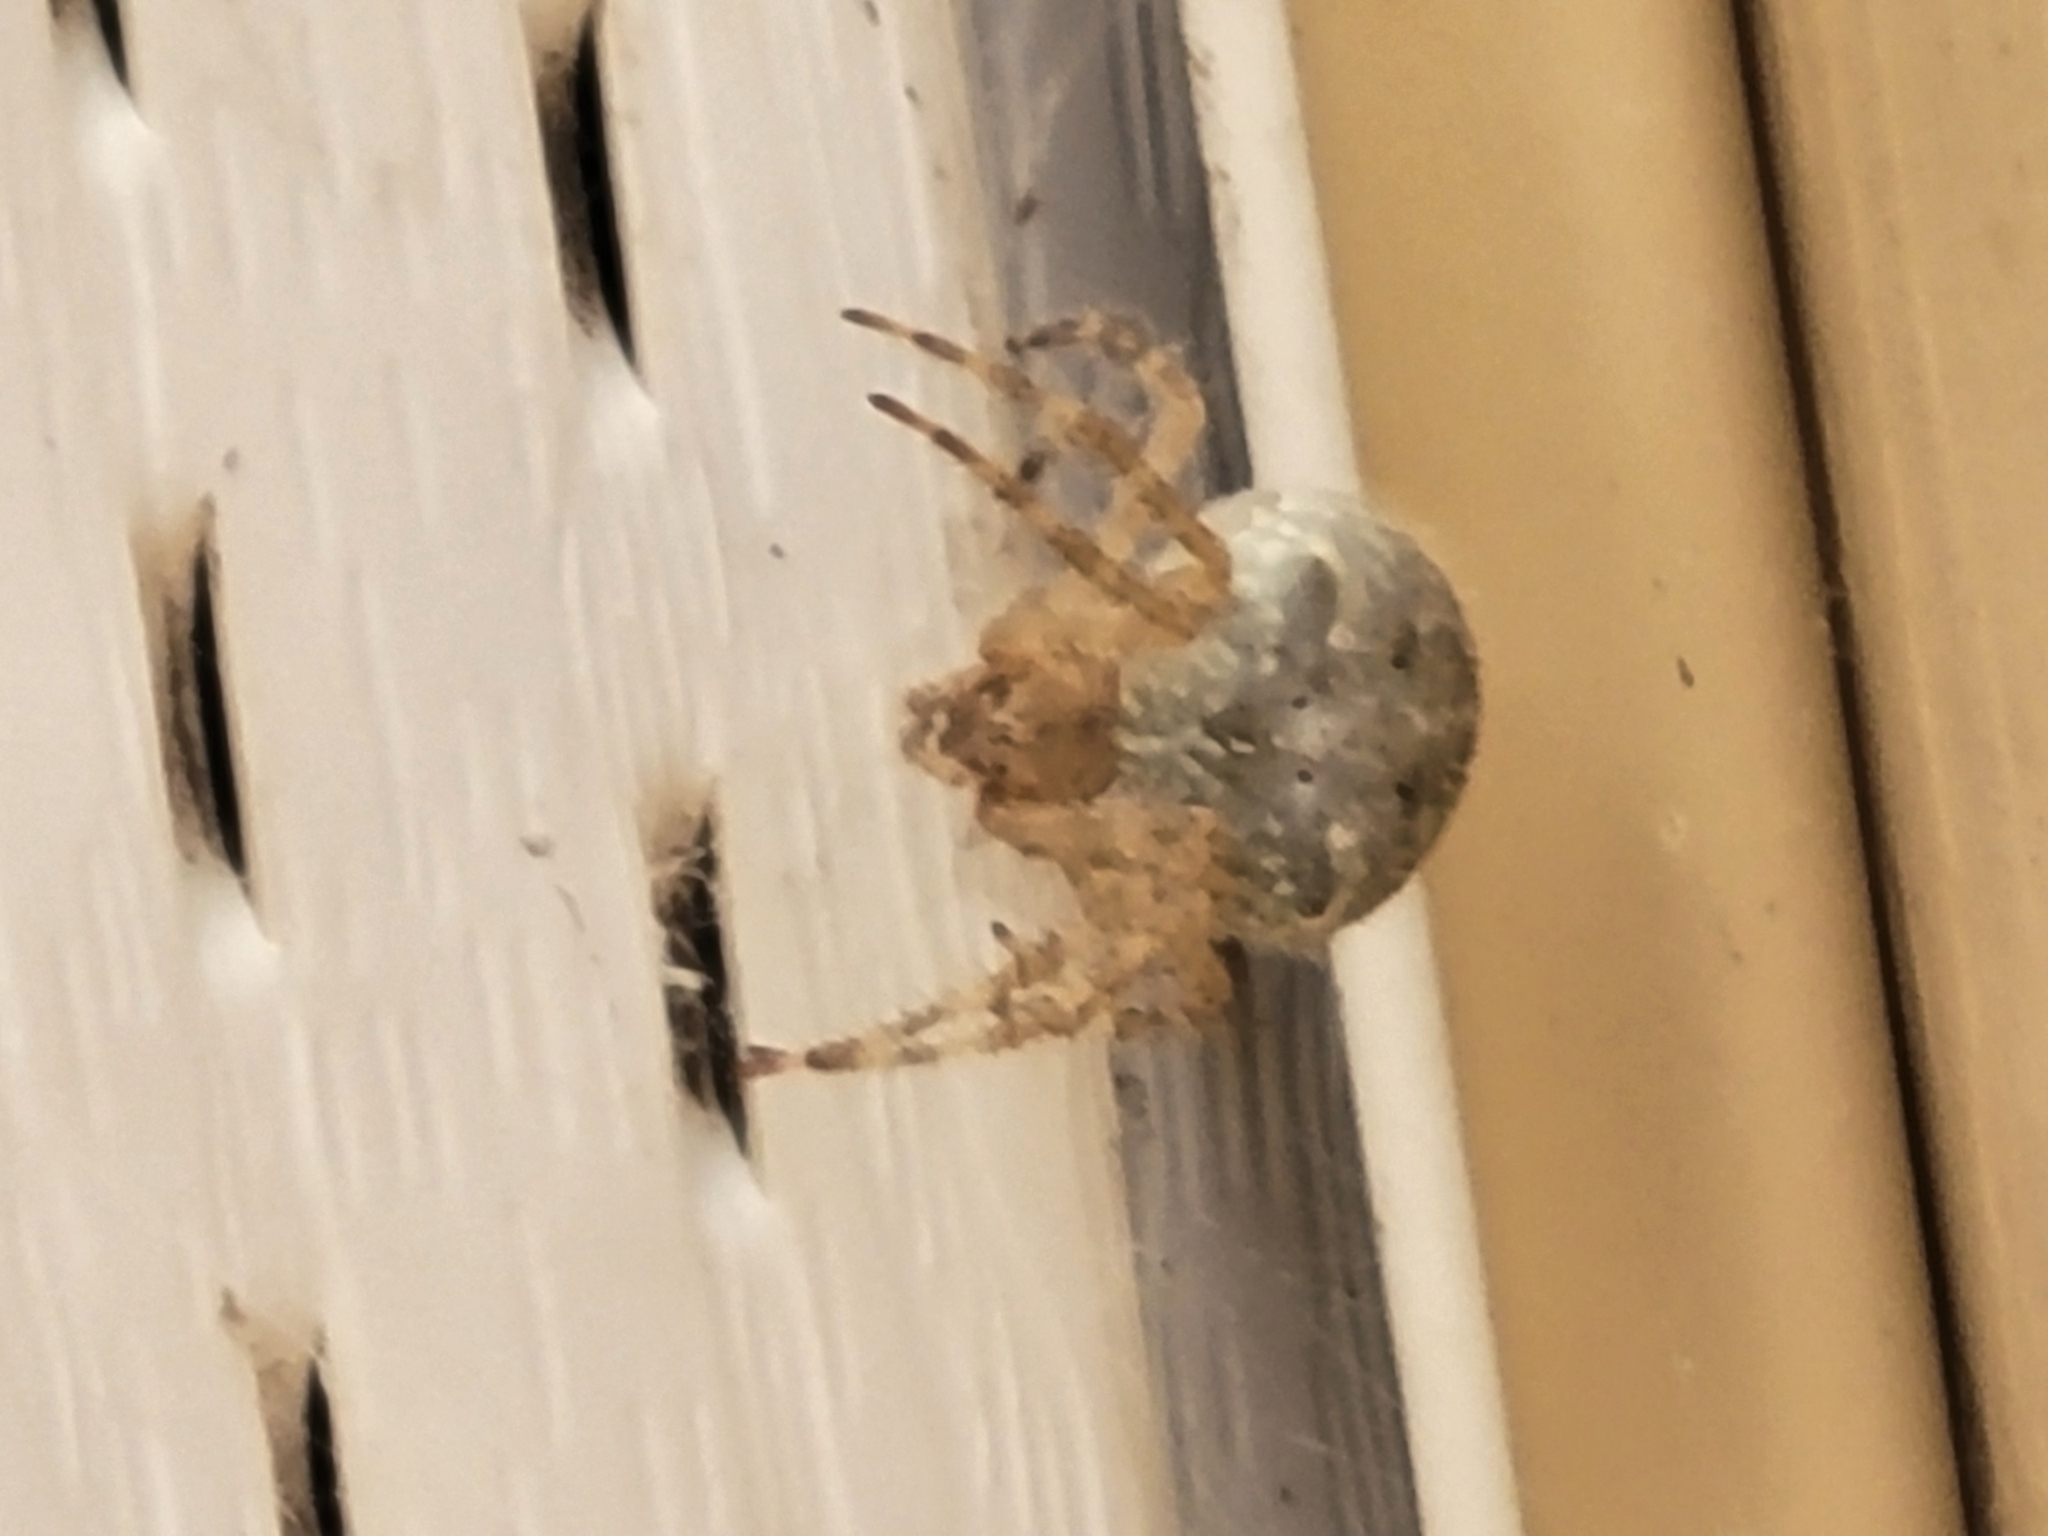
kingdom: Animalia
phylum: Arthropoda
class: Arachnida
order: Araneae
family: Araneidae
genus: Araneus
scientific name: Araneus cavaticus
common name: Barn orbweaver
